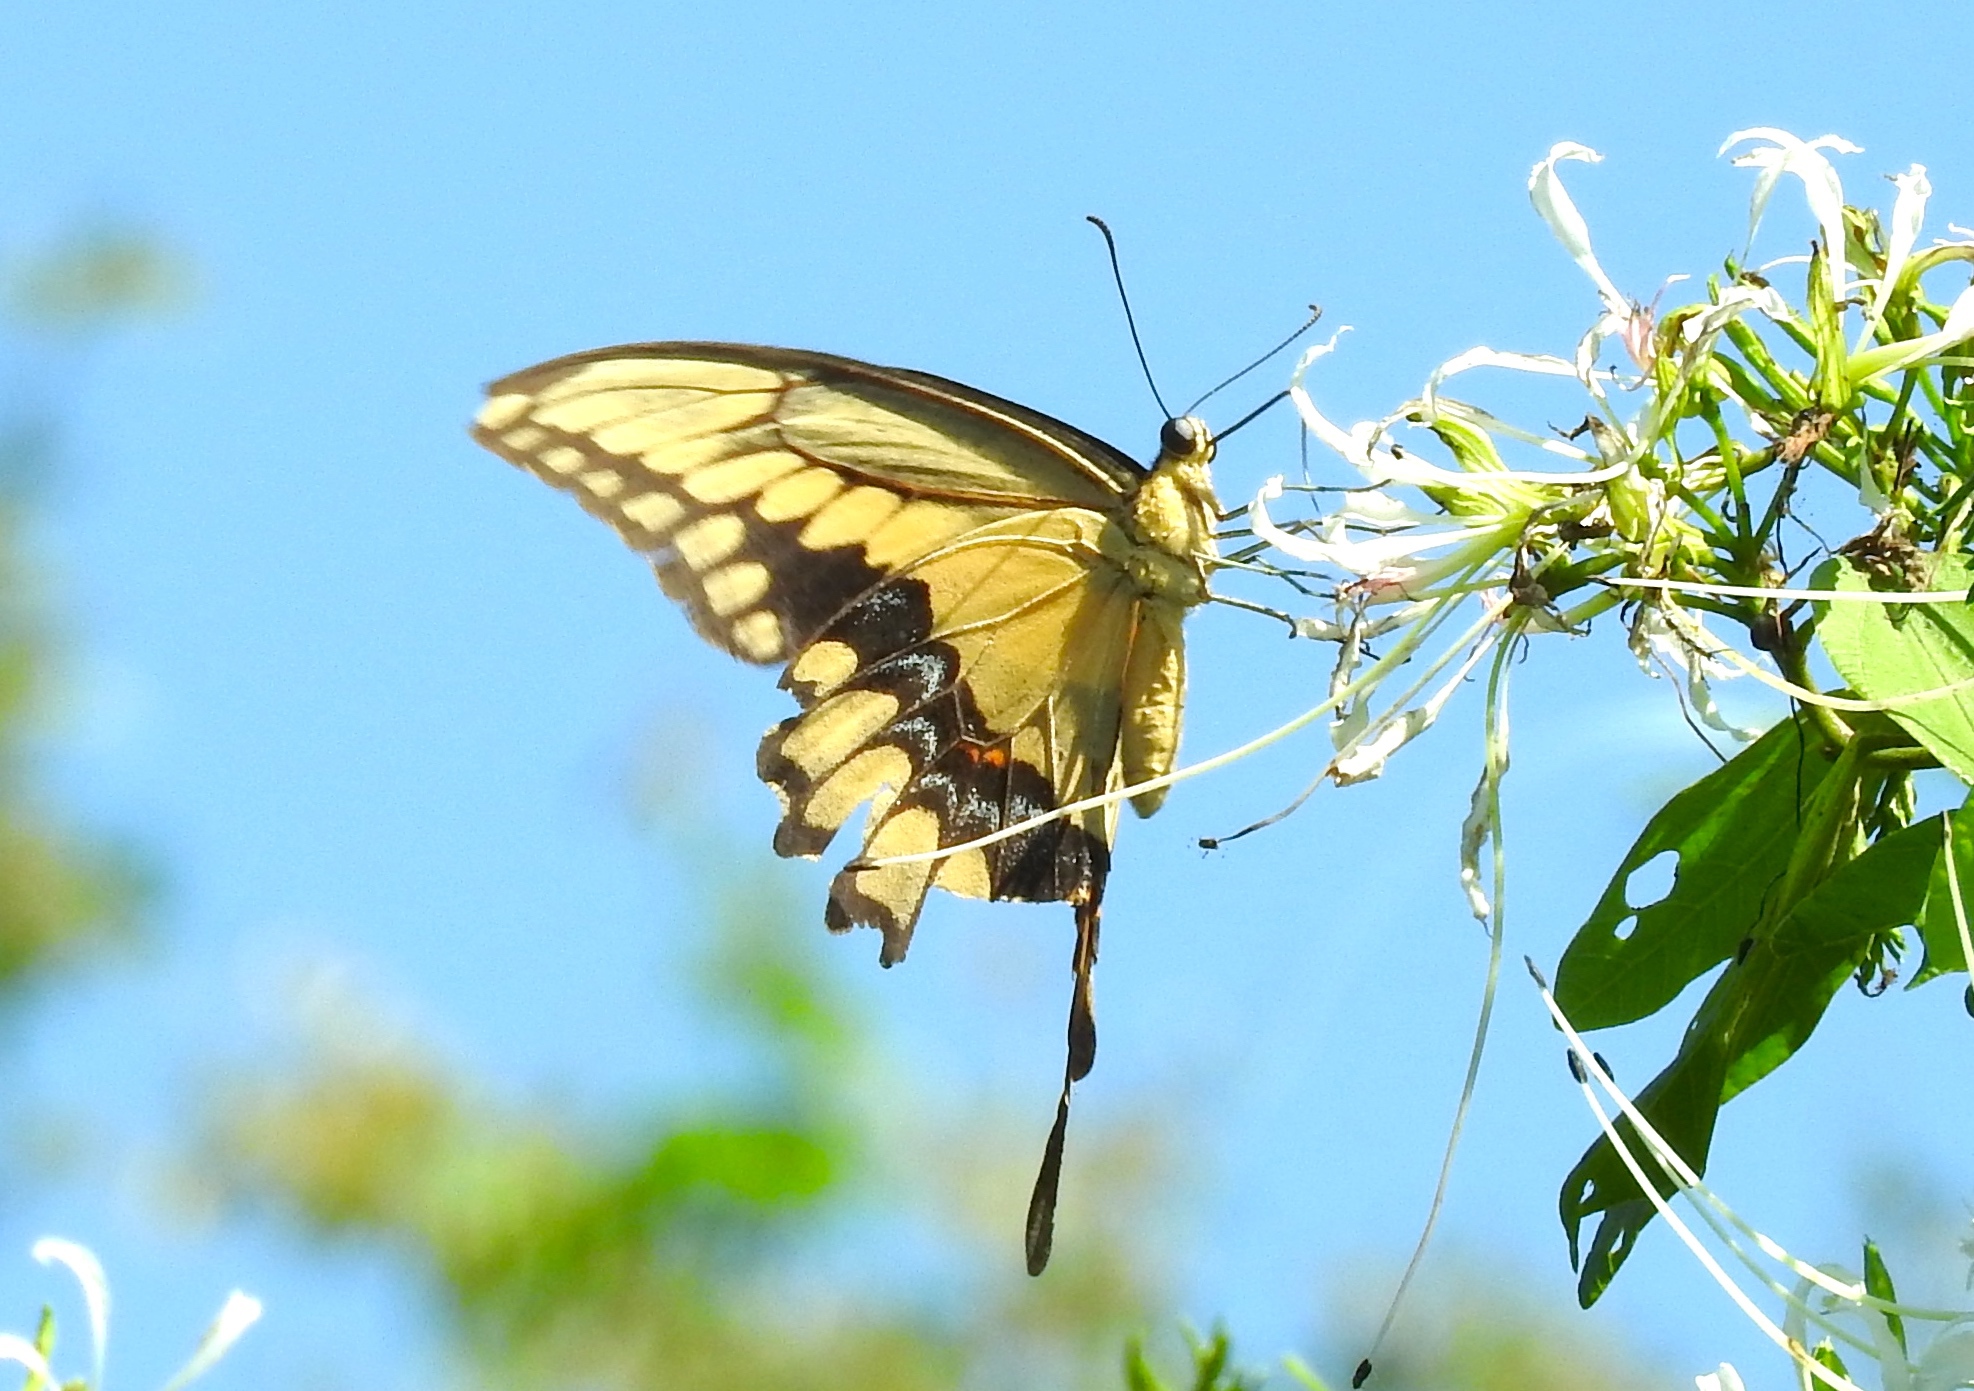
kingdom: Animalia
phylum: Arthropoda
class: Insecta
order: Lepidoptera
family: Papilionidae
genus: Papilio
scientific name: Papilio rumiko
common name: Western giant swallowtail
